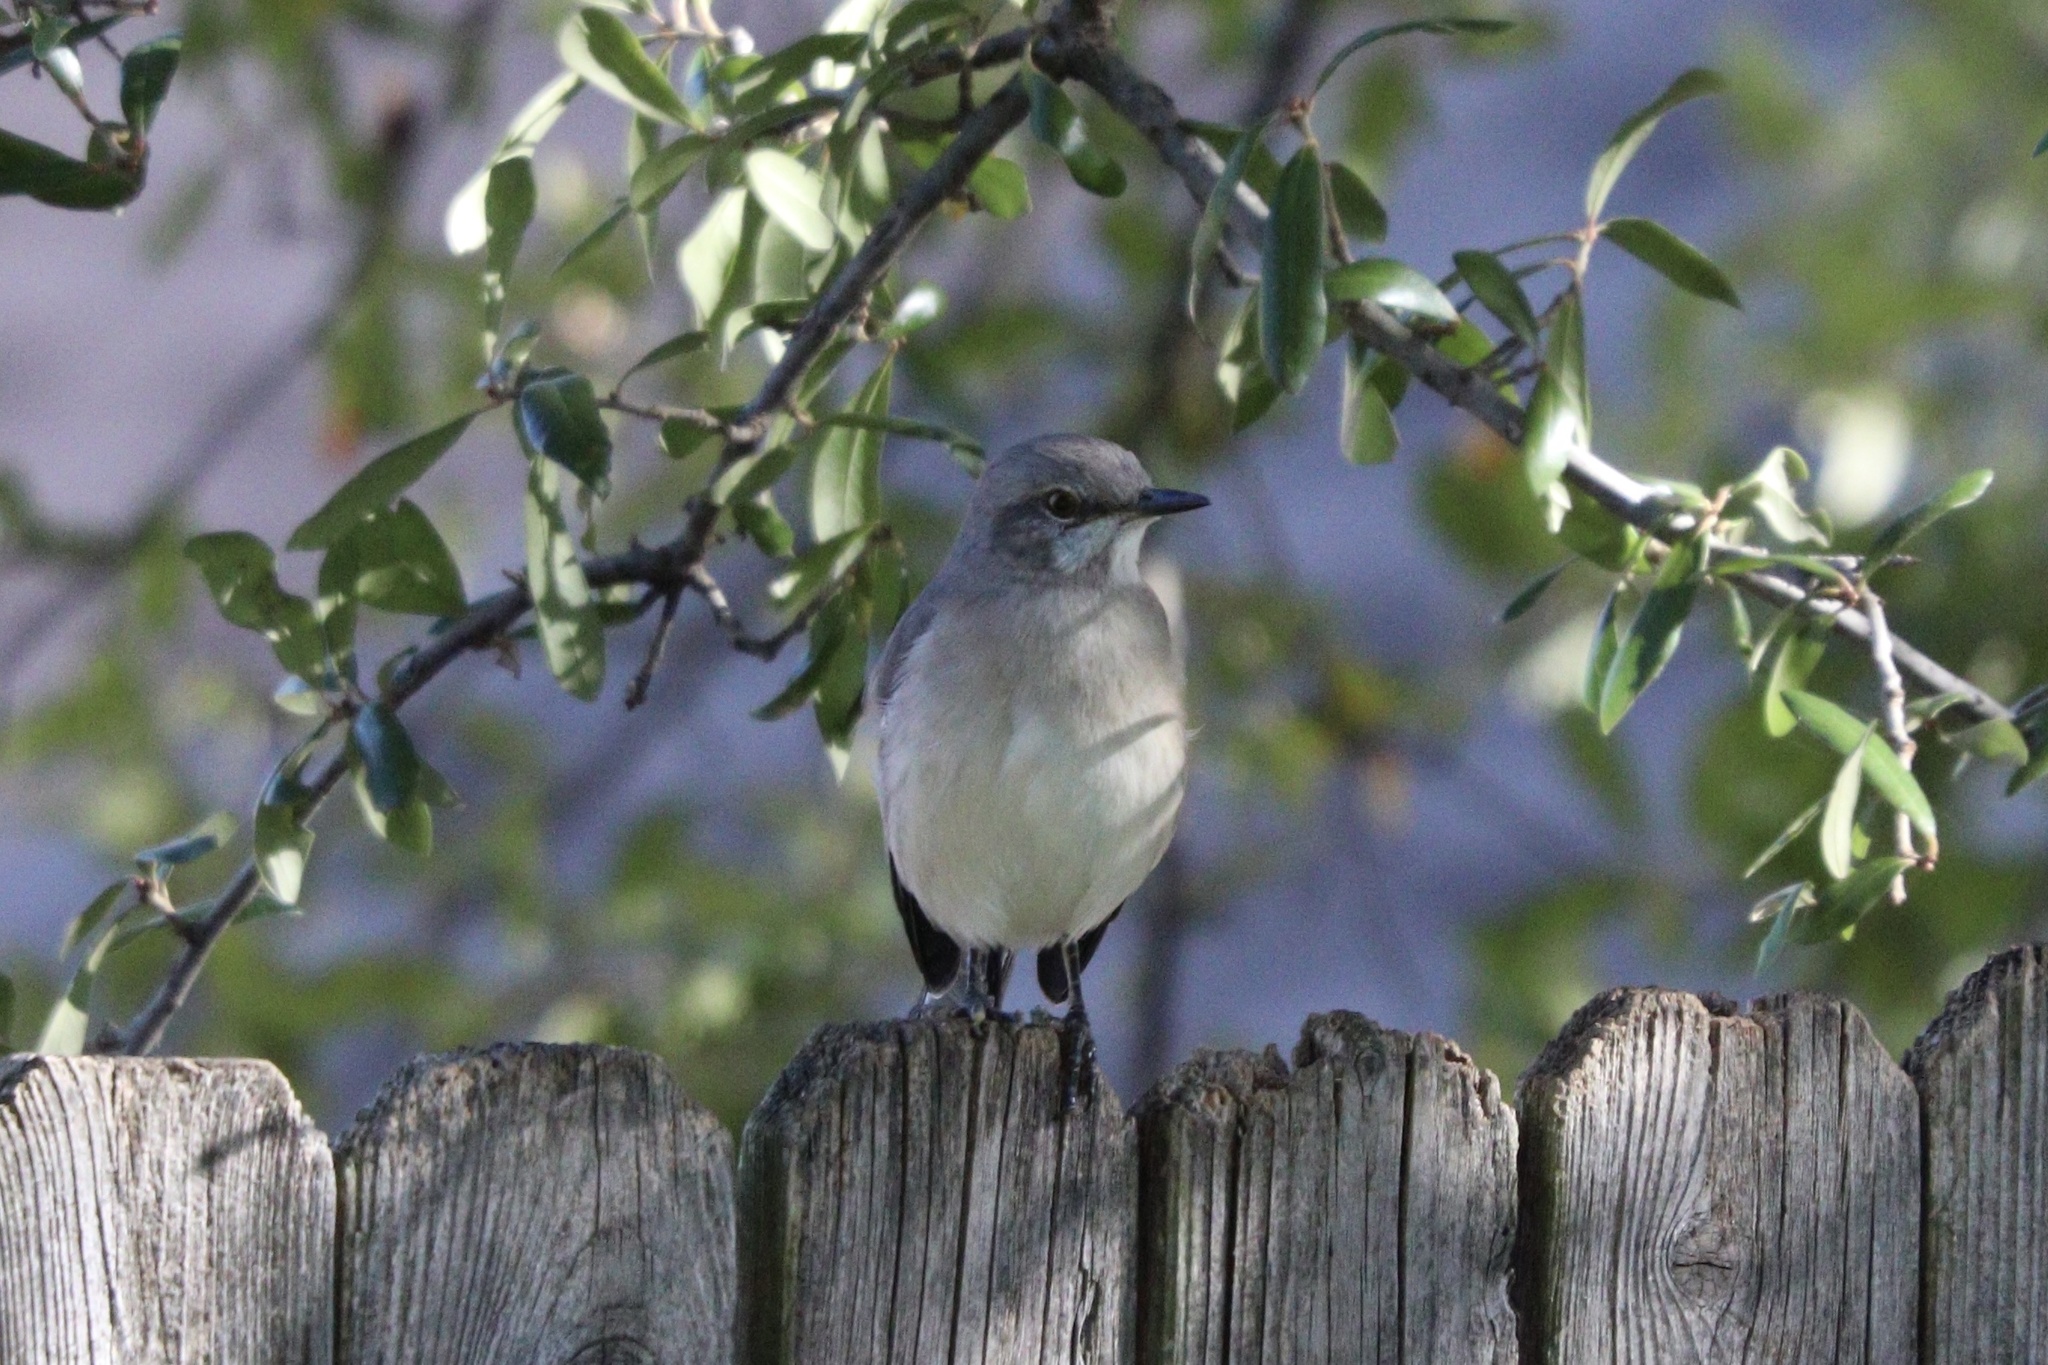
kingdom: Animalia
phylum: Chordata
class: Aves
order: Passeriformes
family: Mimidae
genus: Mimus
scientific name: Mimus polyglottos
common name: Northern mockingbird
